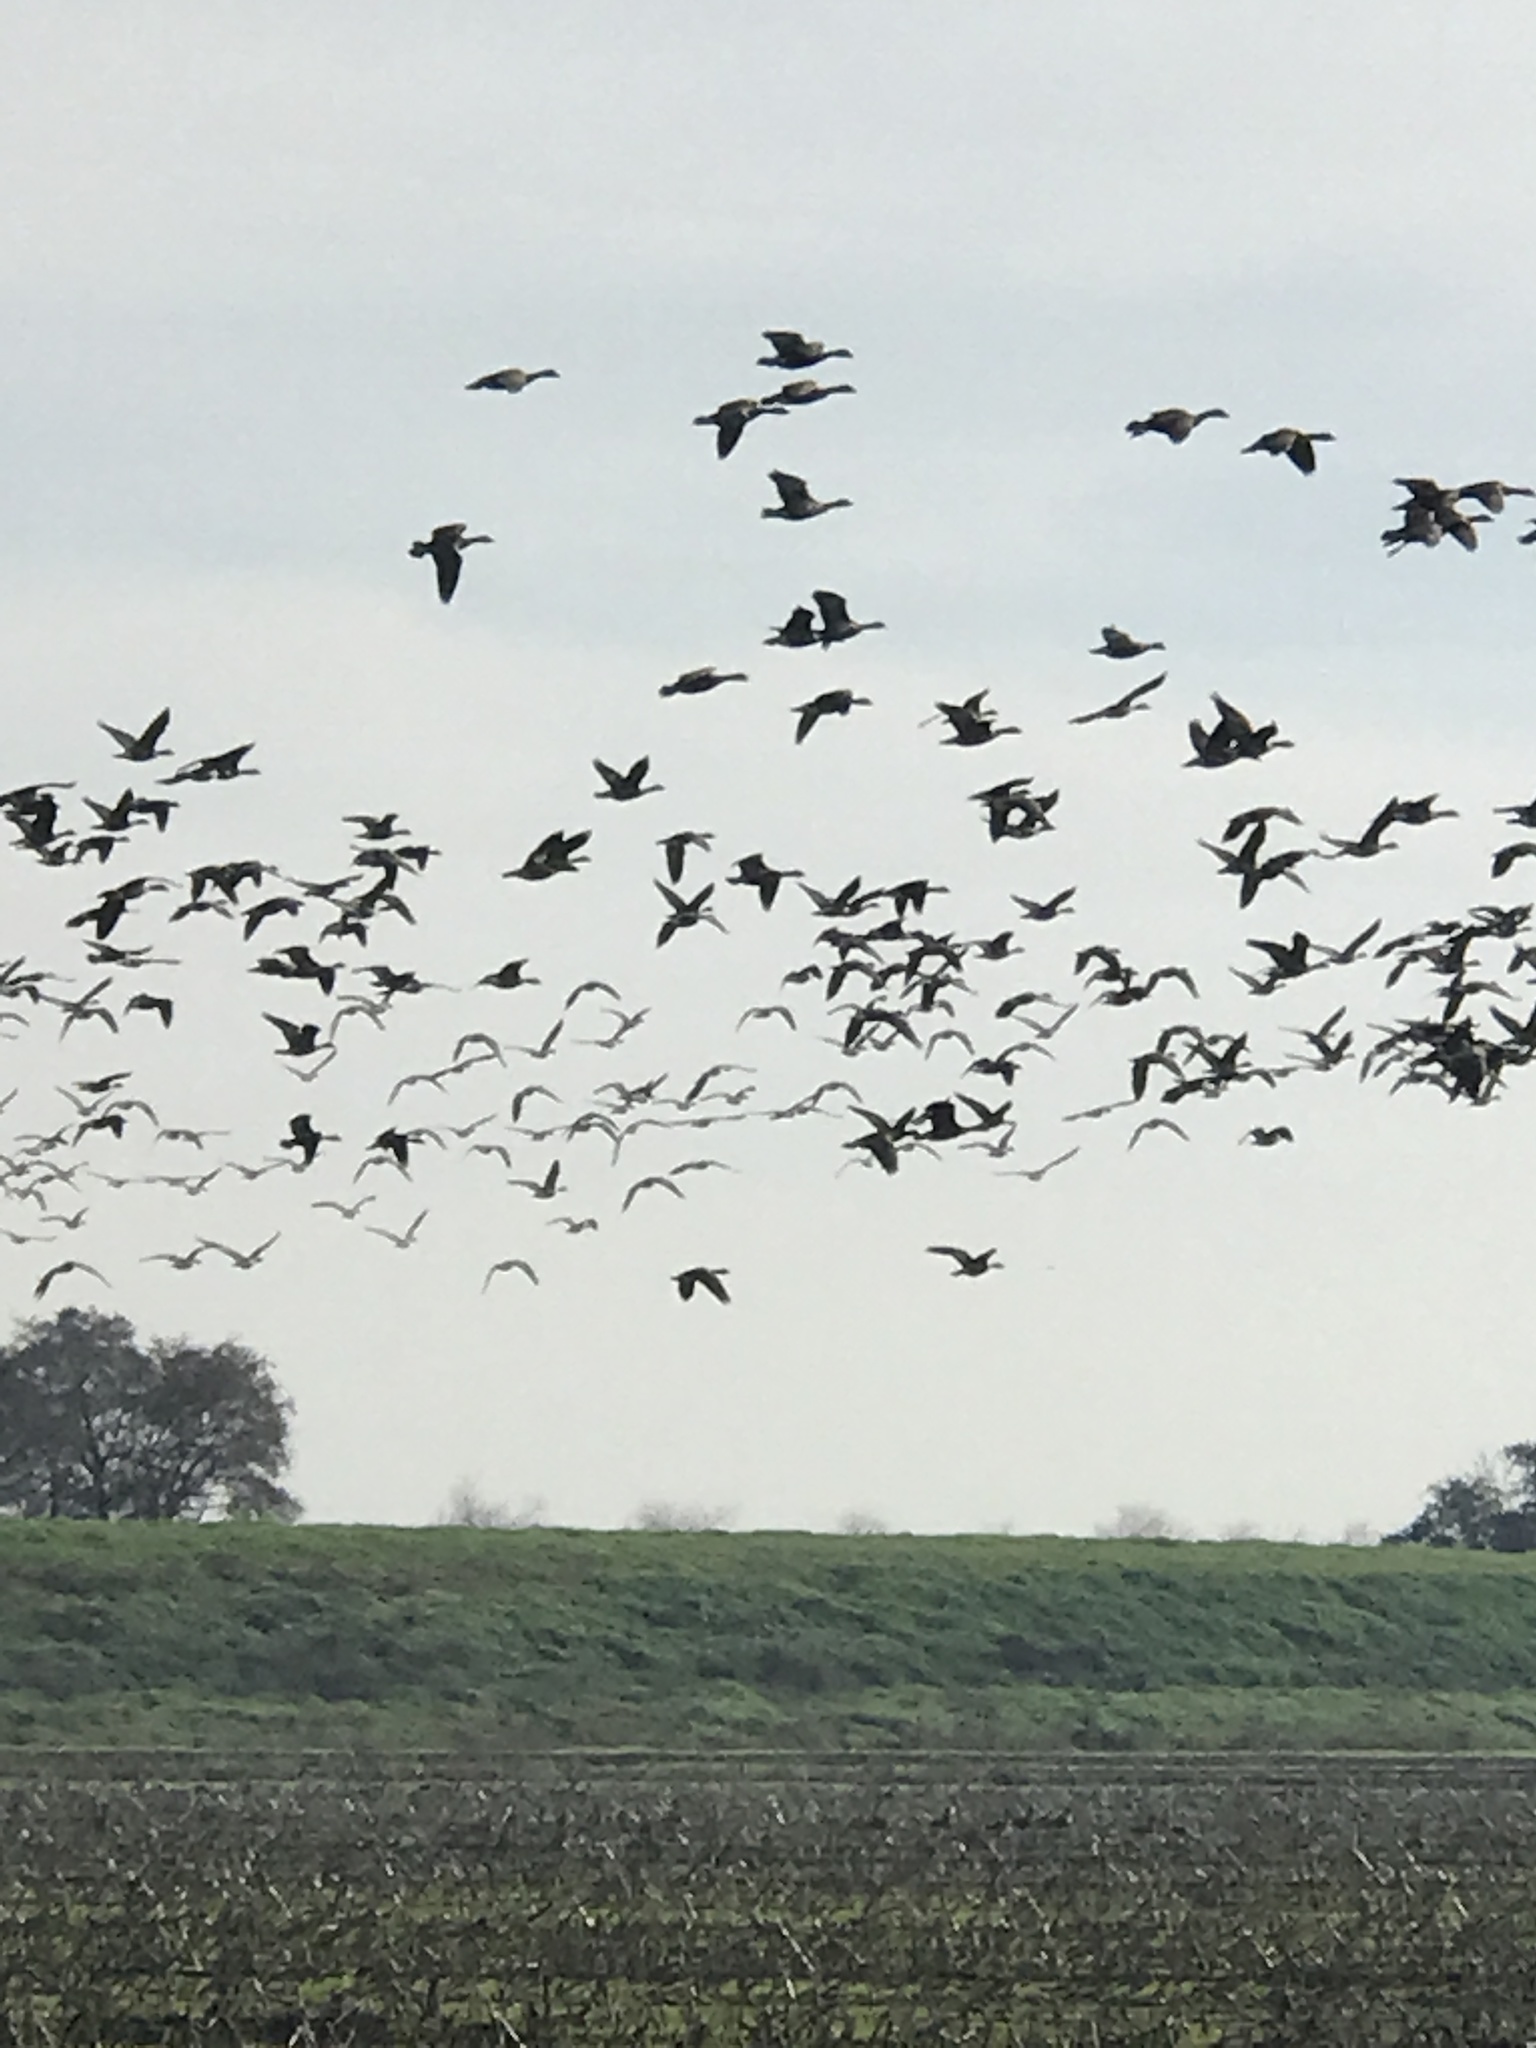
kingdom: Animalia
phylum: Chordata
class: Aves
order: Anseriformes
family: Anatidae
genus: Branta
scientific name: Branta hutchinsii
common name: Cackling goose
